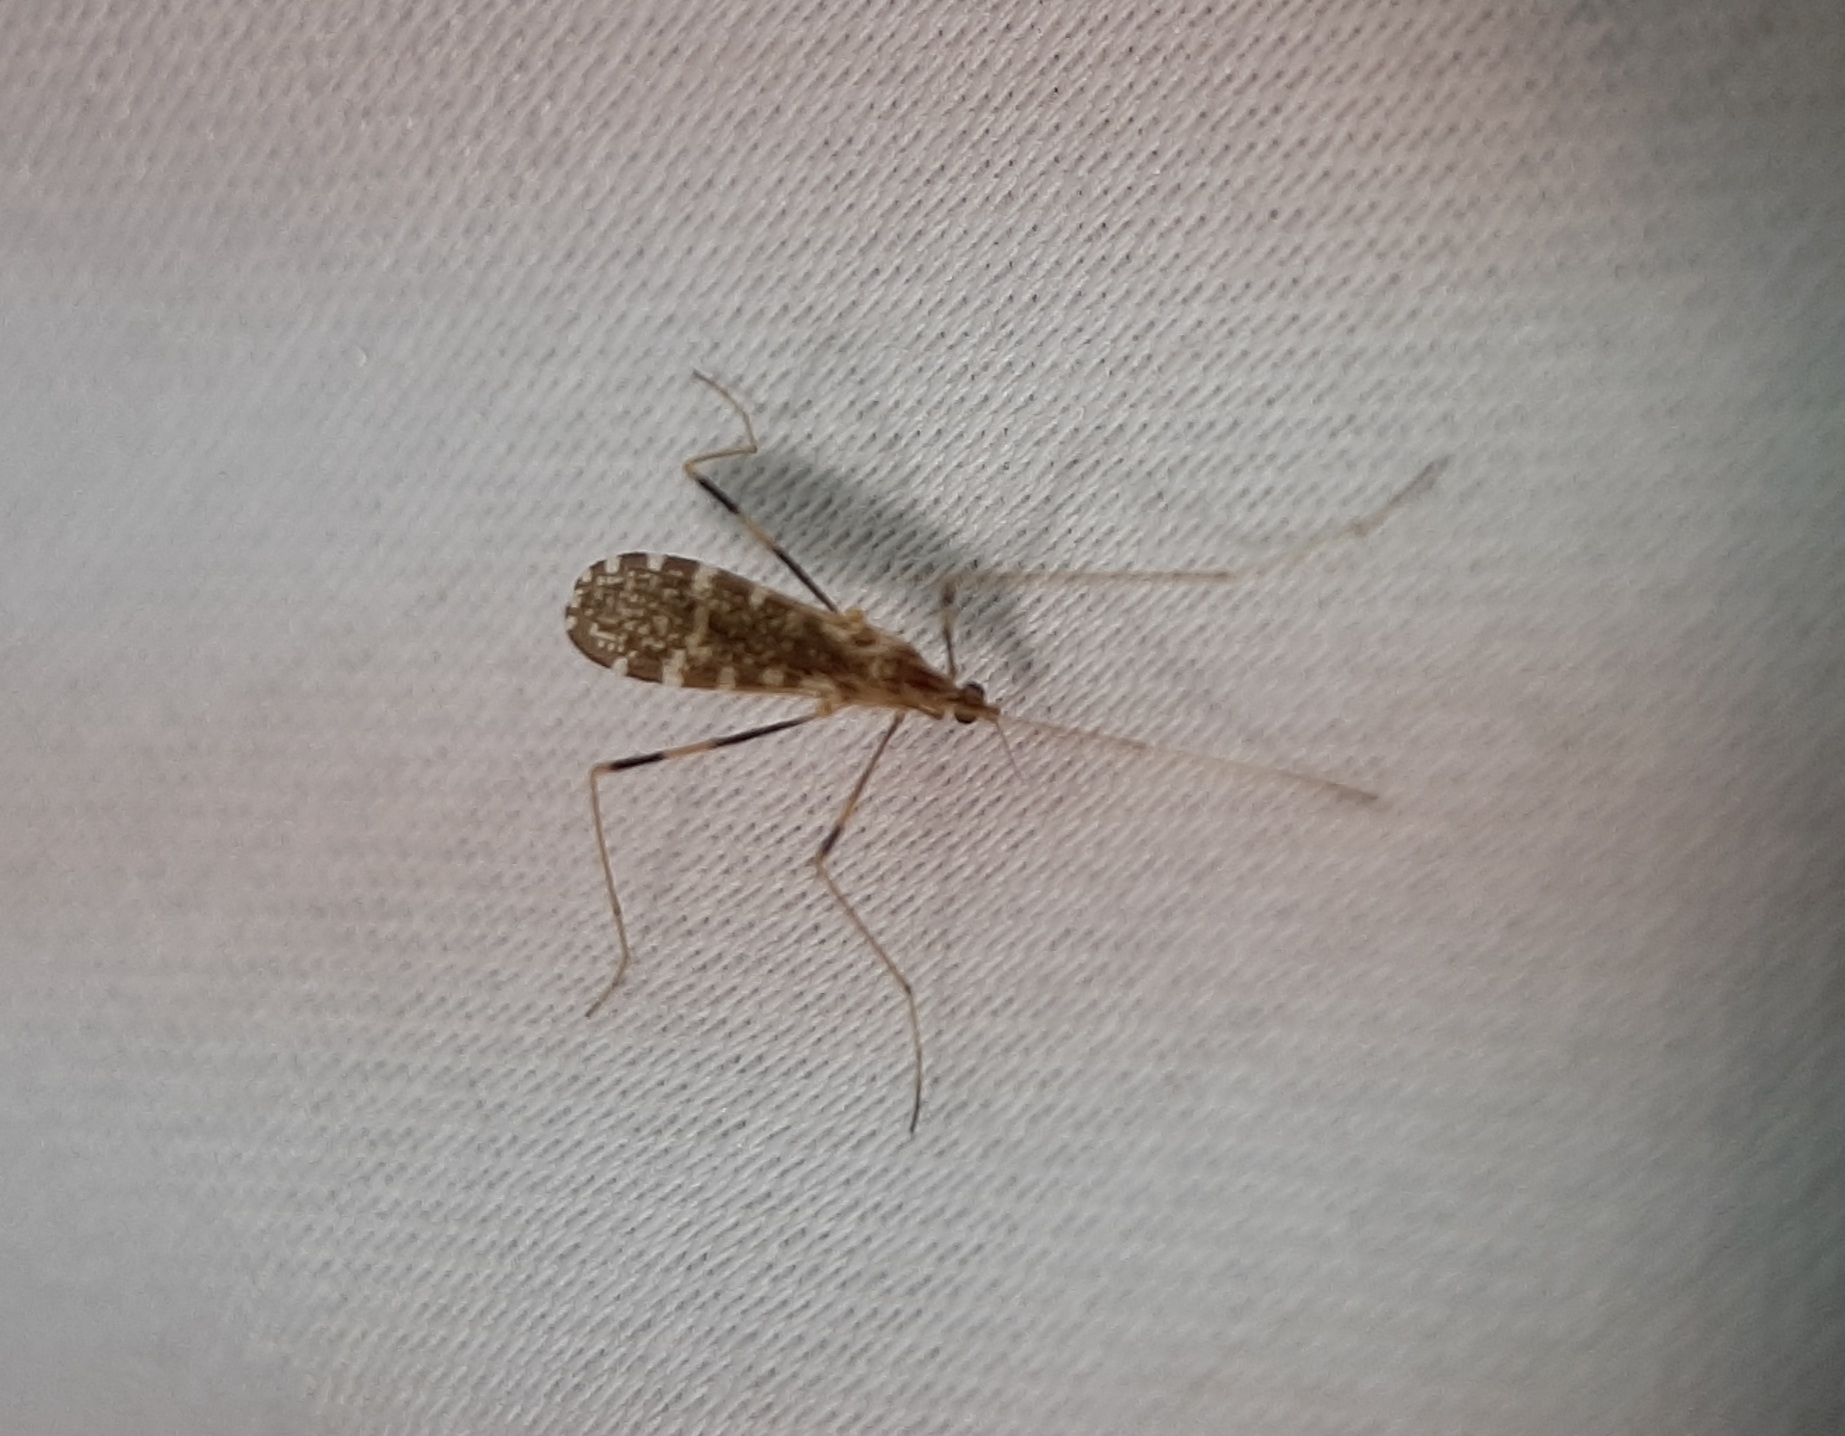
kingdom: Animalia
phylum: Arthropoda
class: Insecta
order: Diptera
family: Limoniidae
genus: Erioptera
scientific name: Erioptera caliptera
